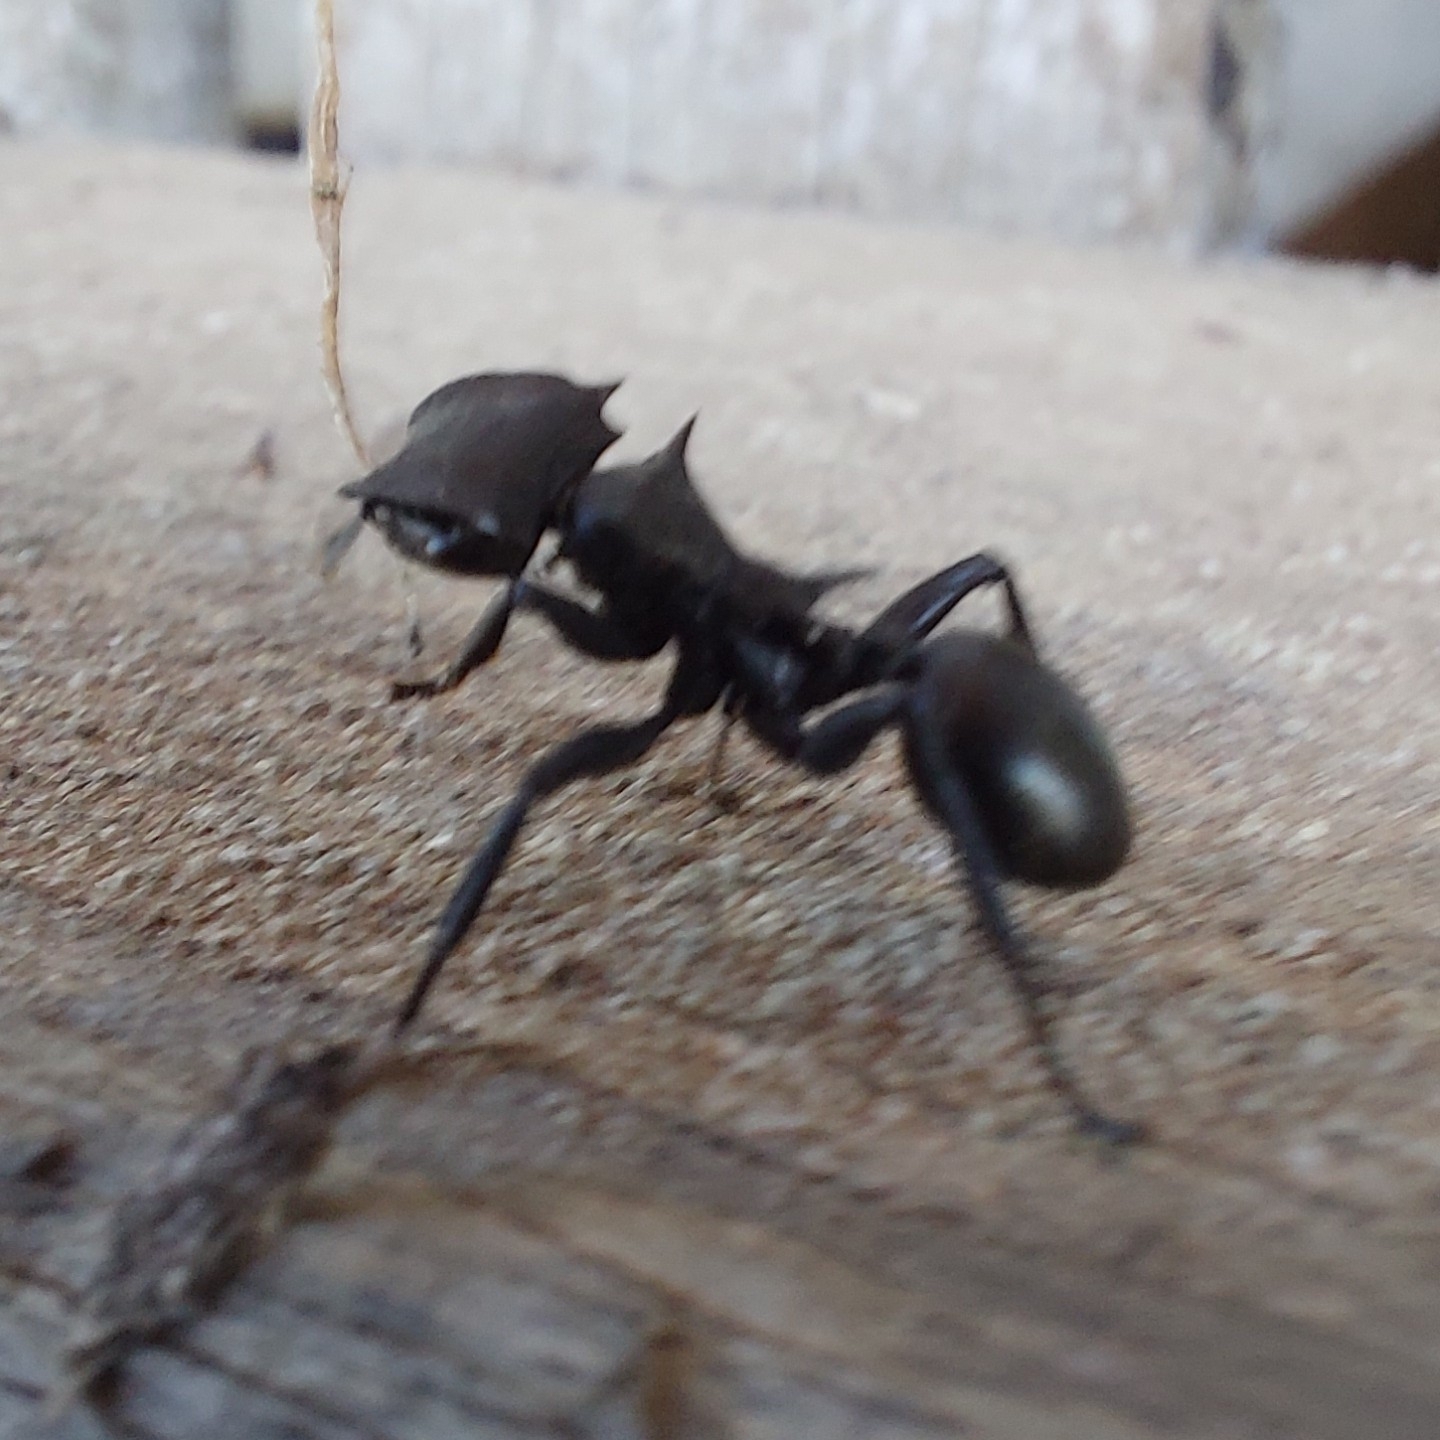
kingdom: Animalia
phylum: Arthropoda
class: Insecta
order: Hymenoptera
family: Formicidae
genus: Cephalotes
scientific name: Cephalotes atratus
